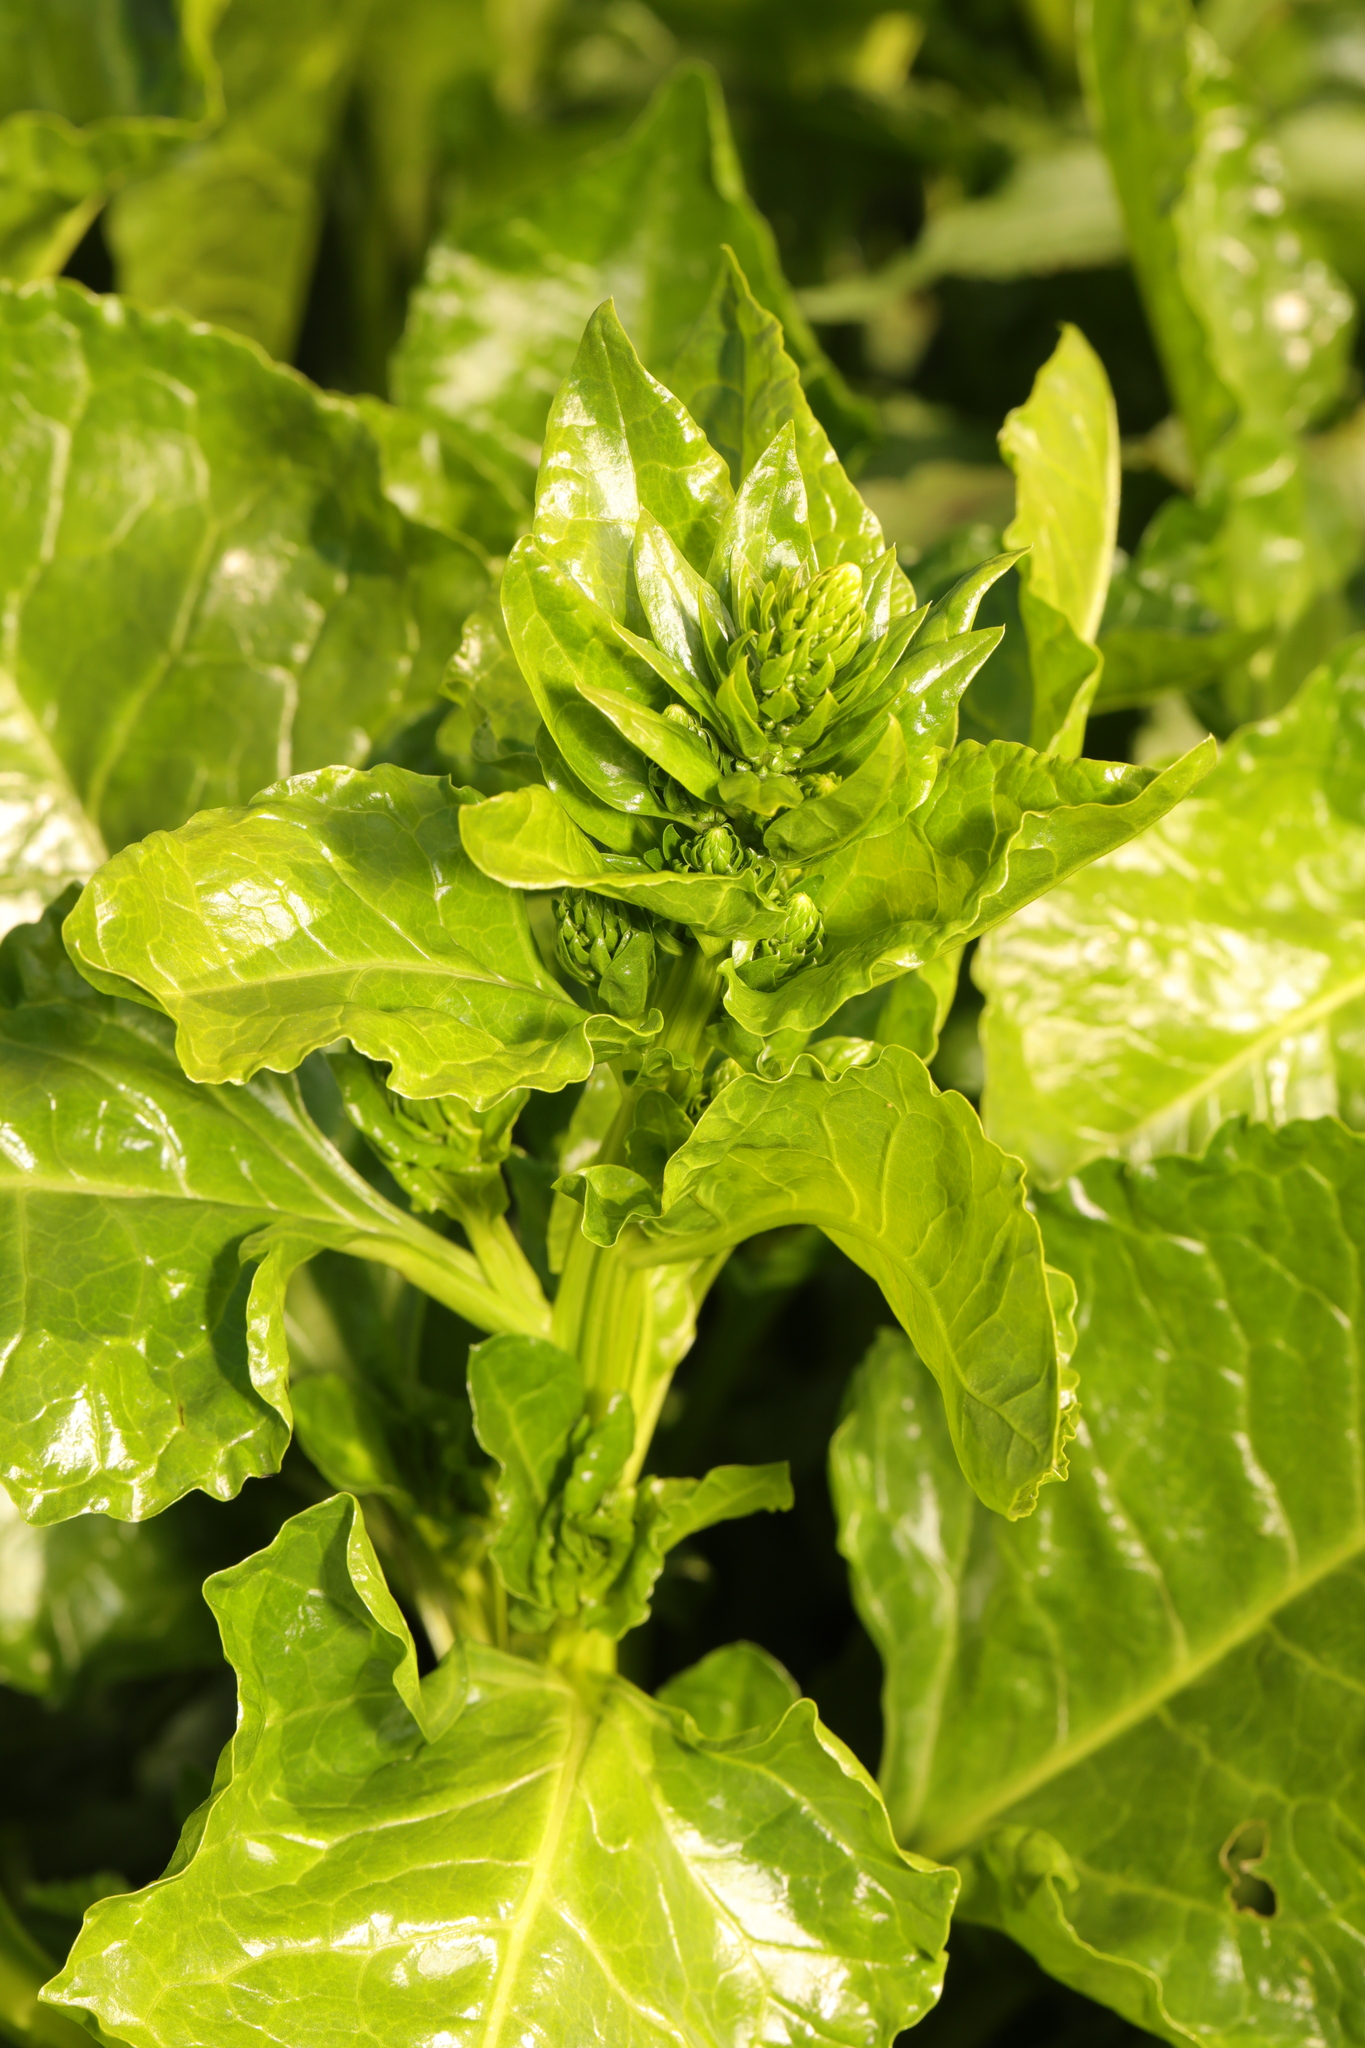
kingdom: Plantae
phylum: Tracheophyta
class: Magnoliopsida
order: Caryophyllales
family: Amaranthaceae
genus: Beta
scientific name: Beta vulgaris
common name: Beet
